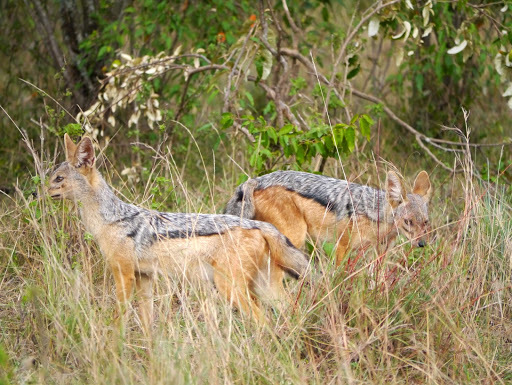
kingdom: Animalia
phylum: Chordata
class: Mammalia
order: Carnivora
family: Canidae
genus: Lupulella
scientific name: Lupulella
